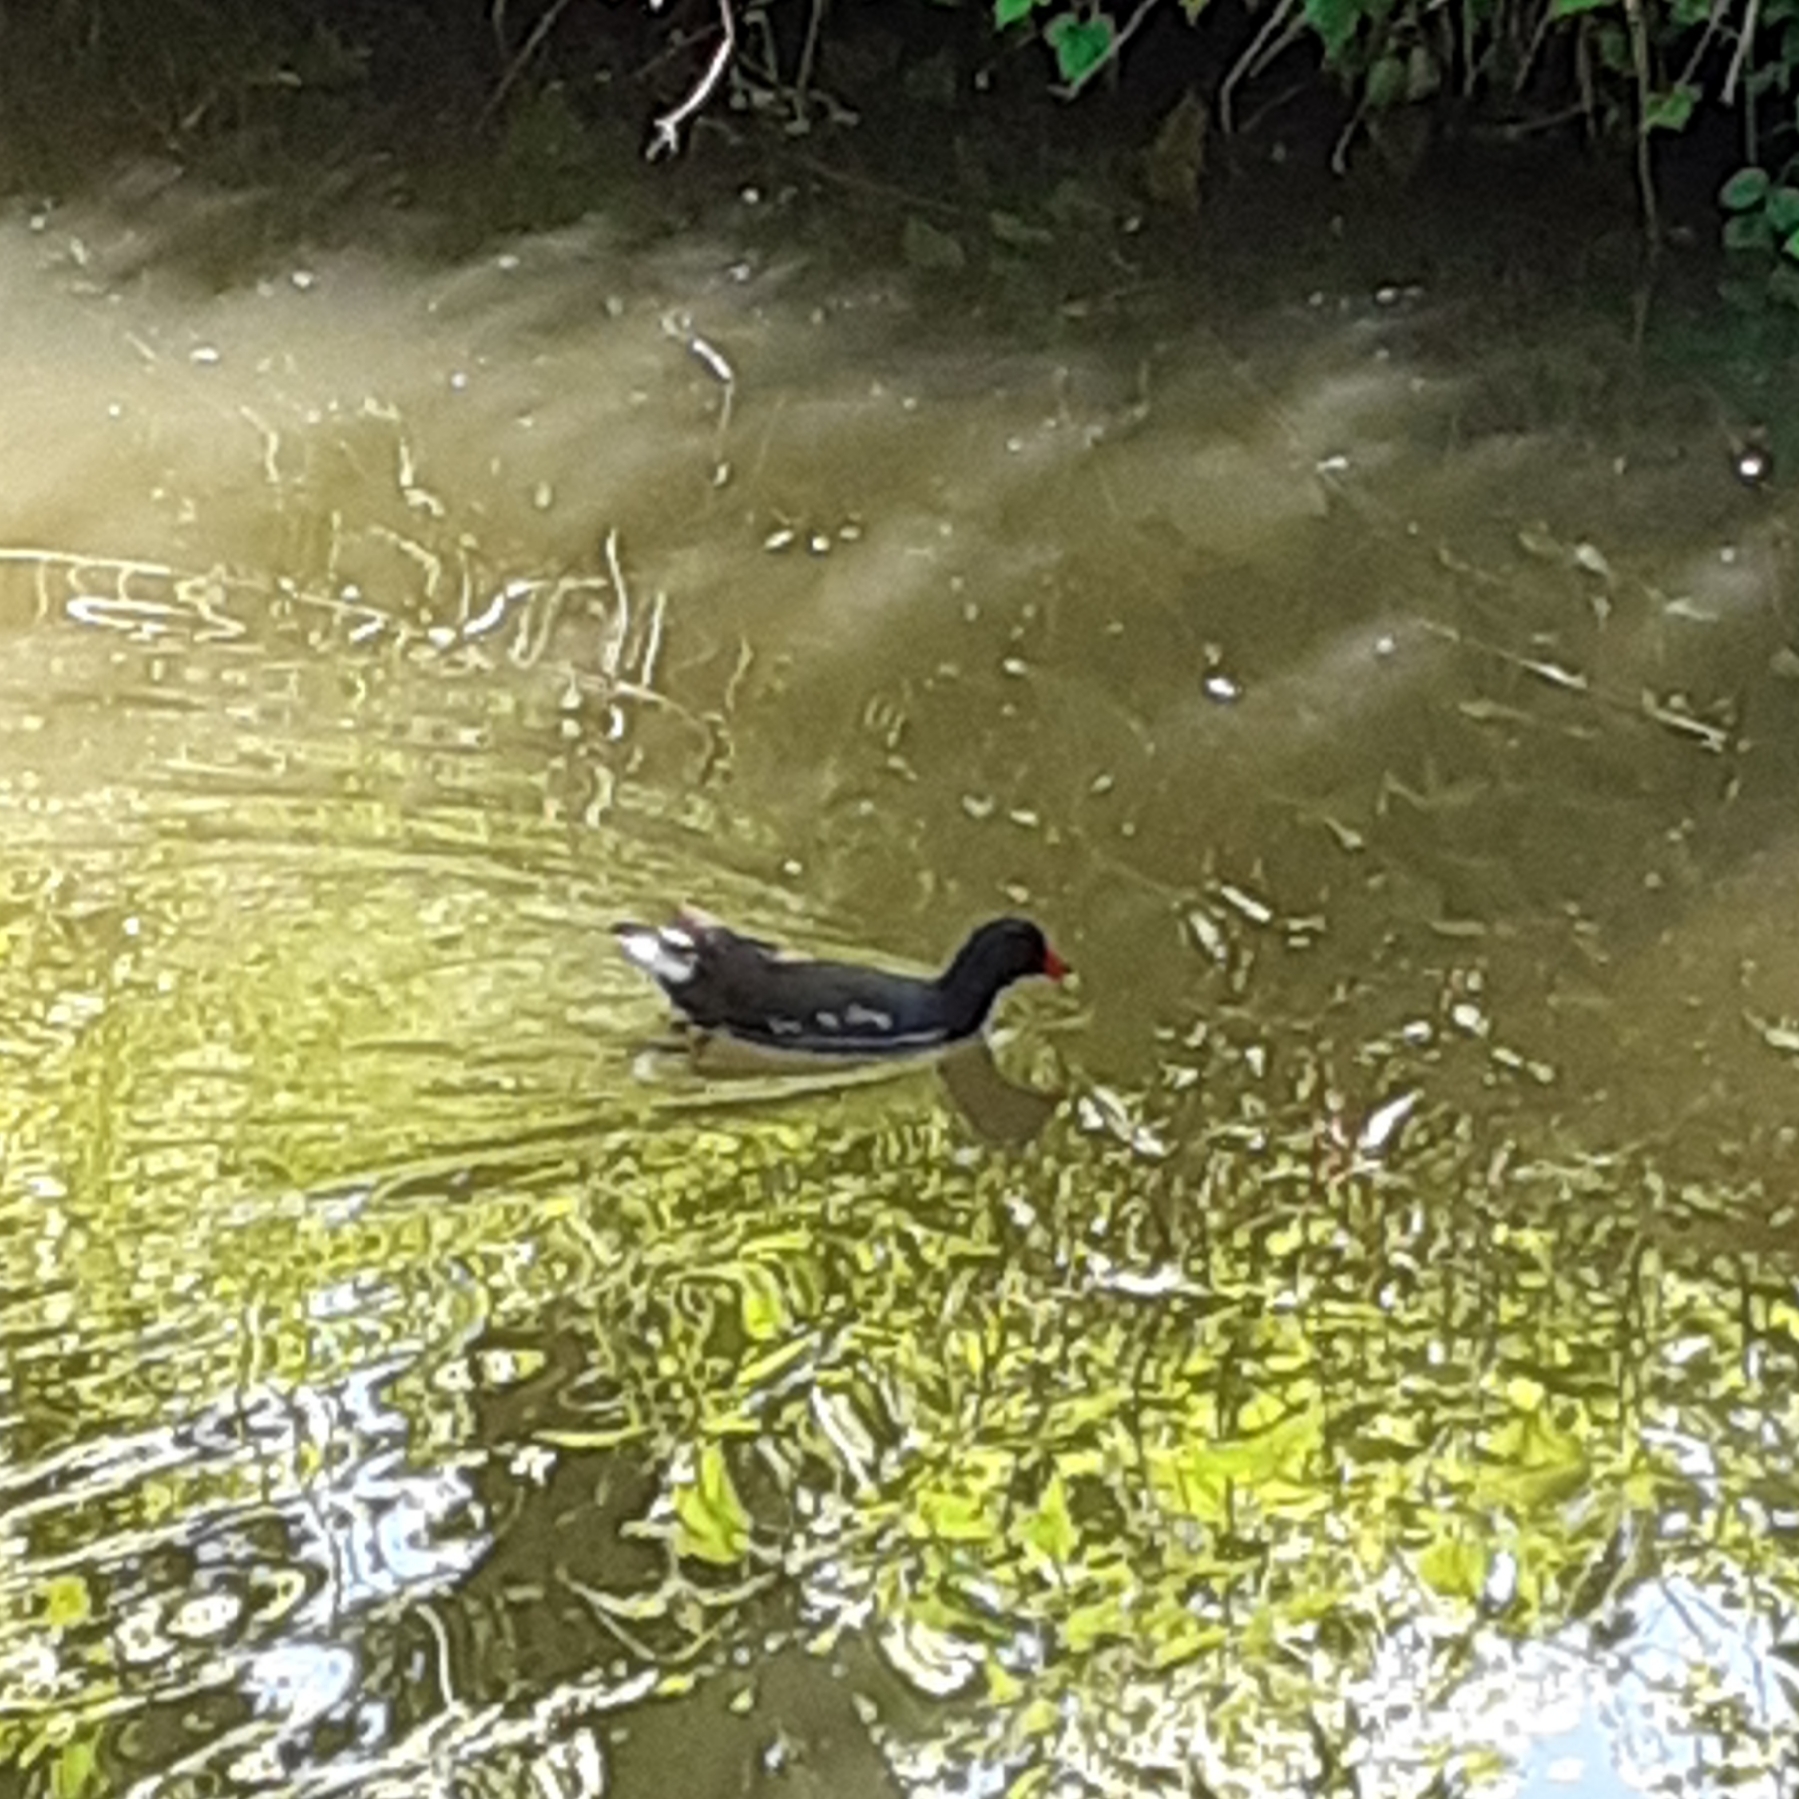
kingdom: Animalia
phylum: Chordata
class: Aves
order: Gruiformes
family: Rallidae
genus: Gallinula
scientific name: Gallinula chloropus
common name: Common moorhen
